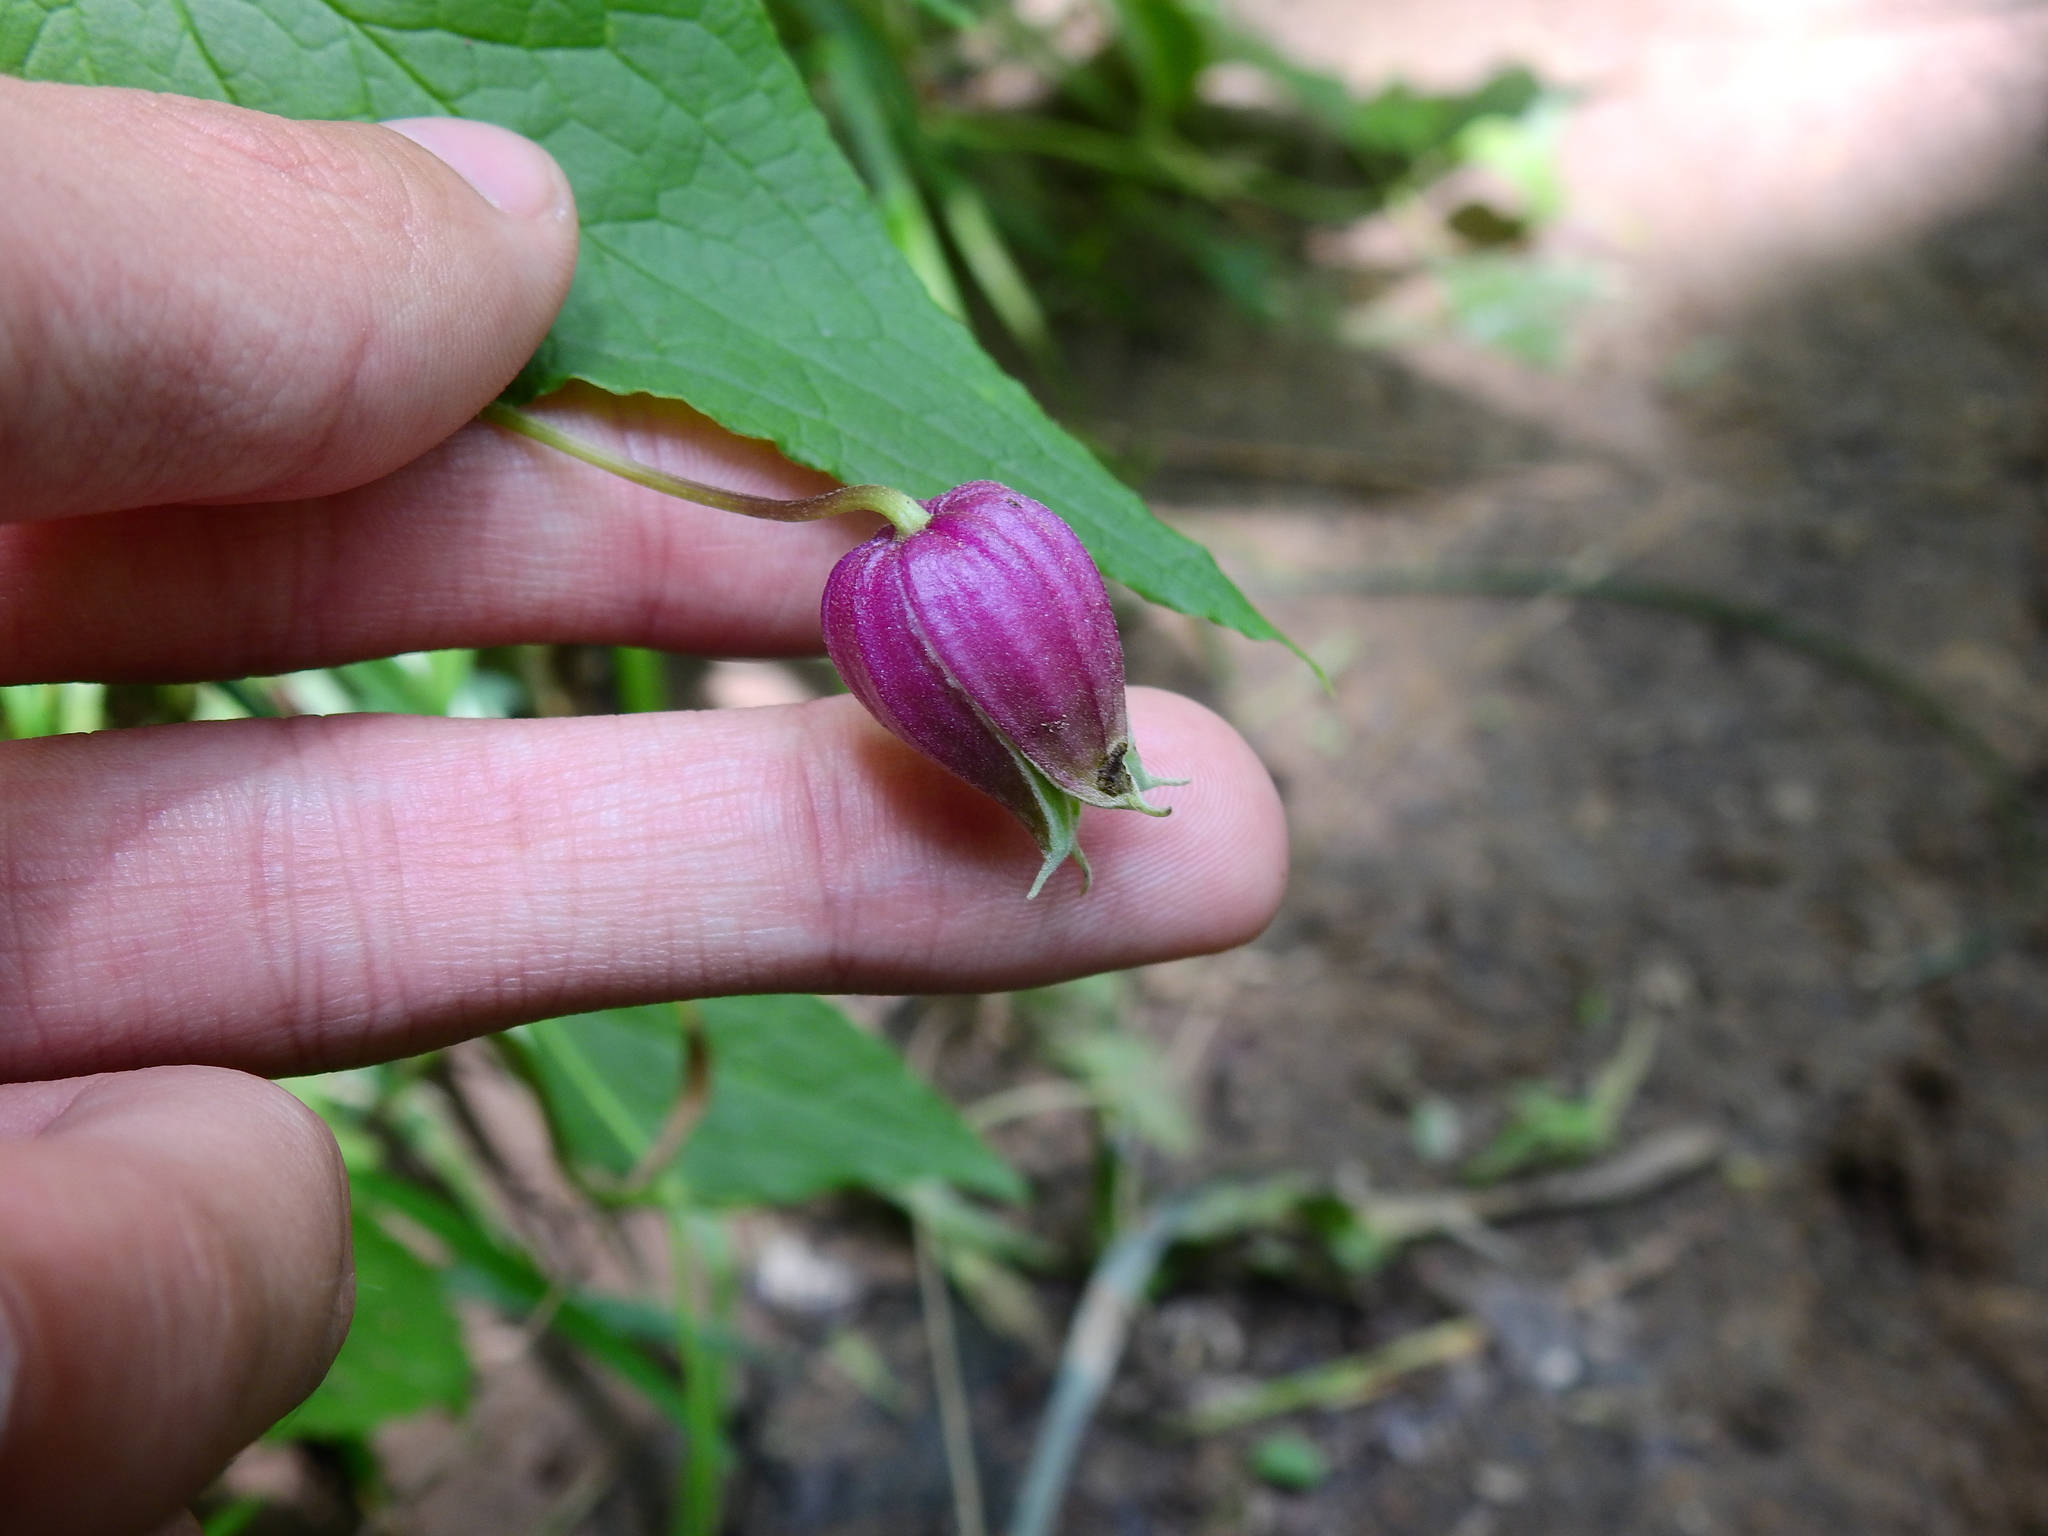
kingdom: Plantae
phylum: Tracheophyta
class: Magnoliopsida
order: Ranunculales
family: Ranunculaceae
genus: Clematis
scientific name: Clematis viorna
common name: Leather-flower
